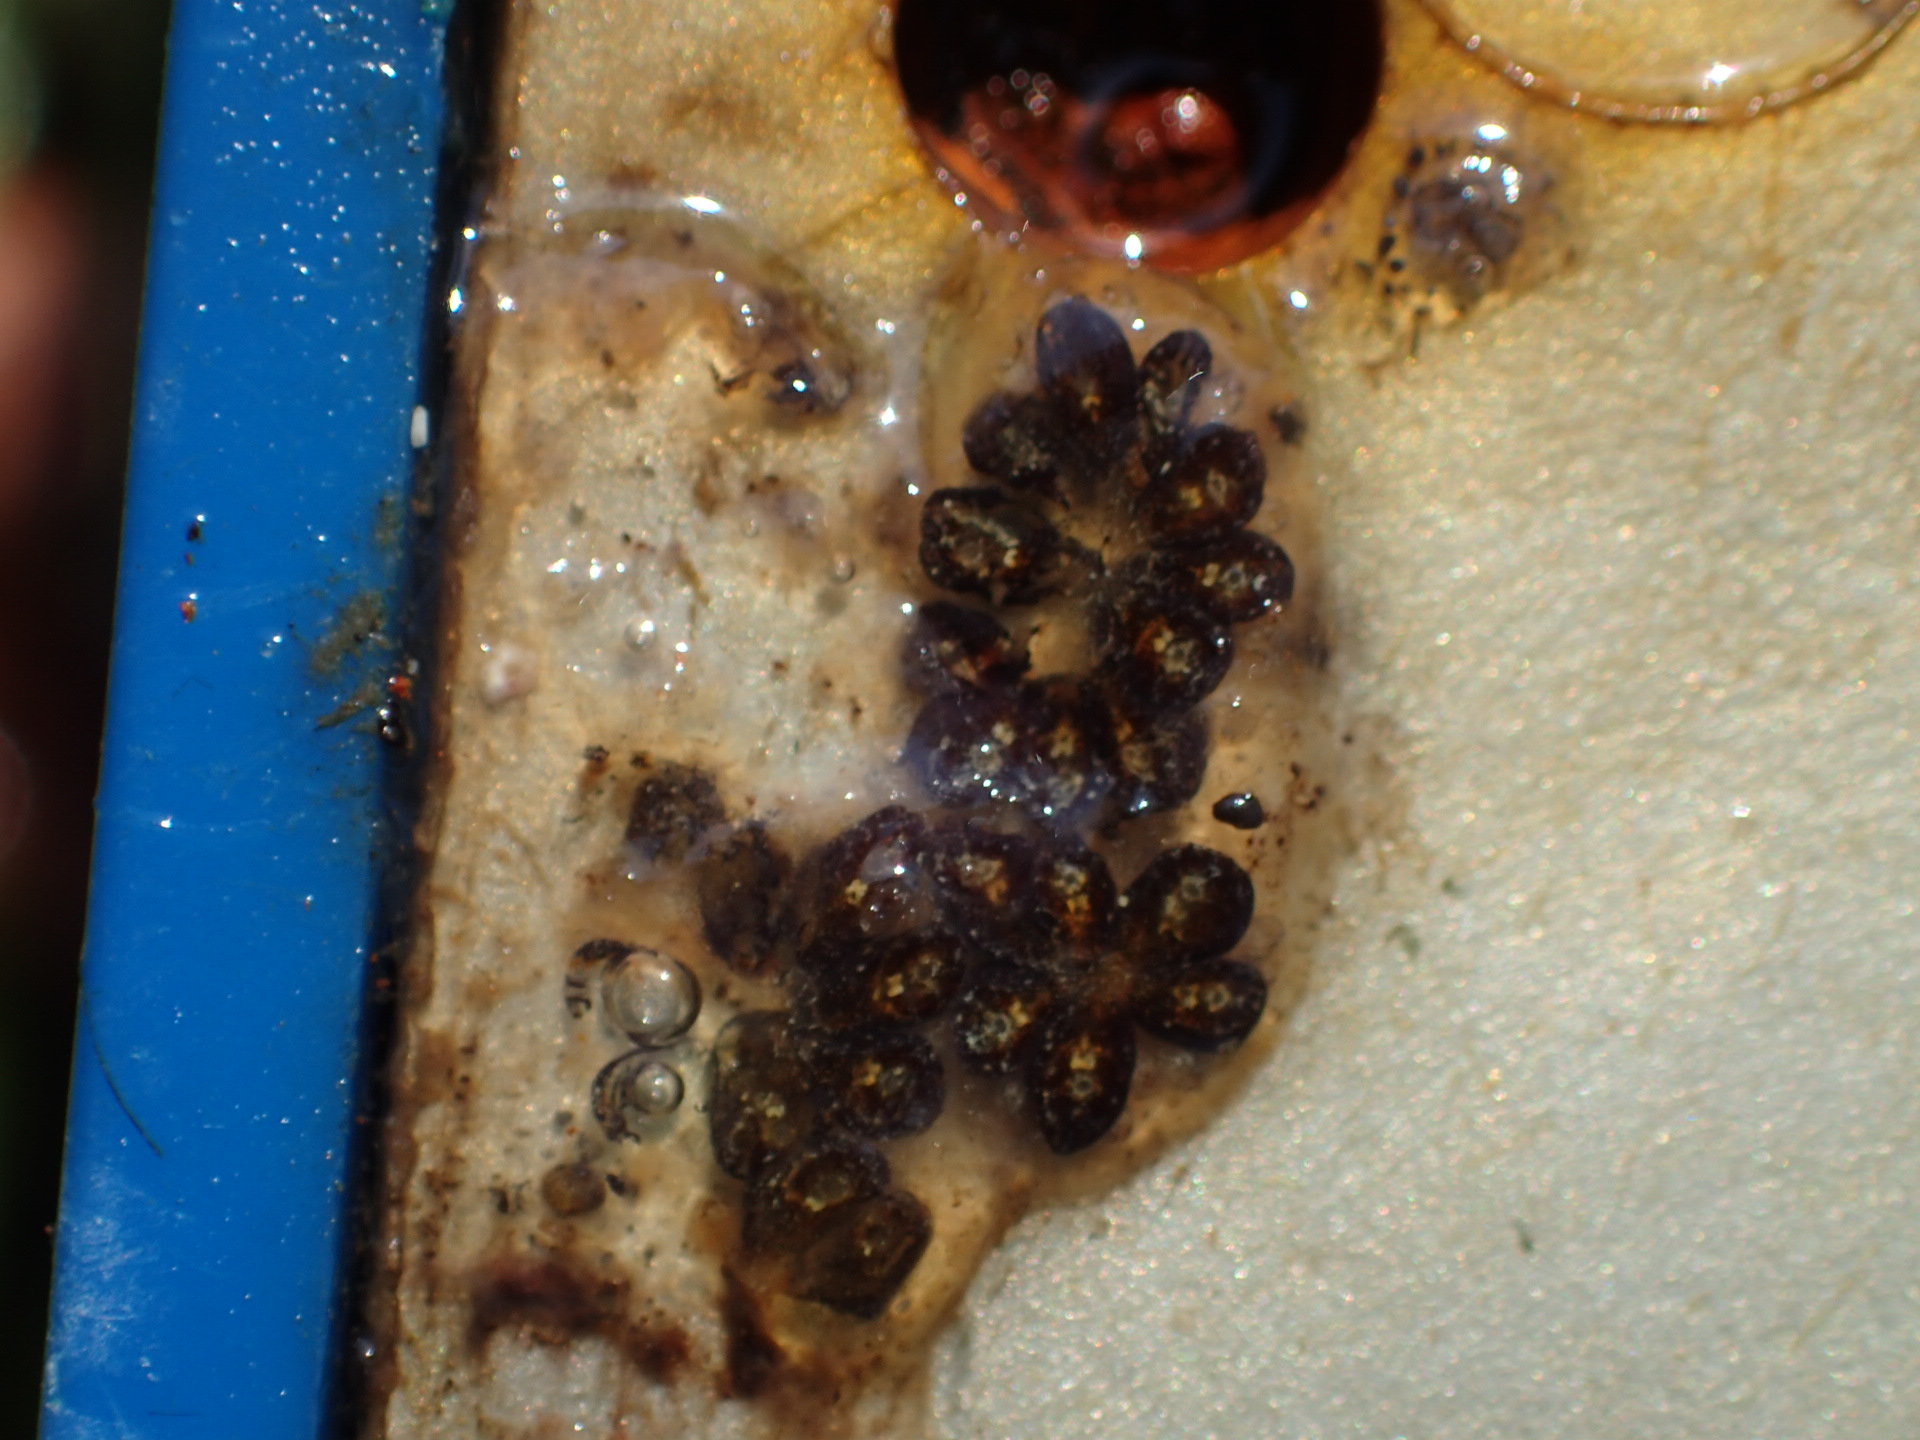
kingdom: Animalia
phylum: Chordata
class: Ascidiacea
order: Stolidobranchia
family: Styelidae
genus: Botryllus
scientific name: Botryllus schlosseri
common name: Golden star tunicate
